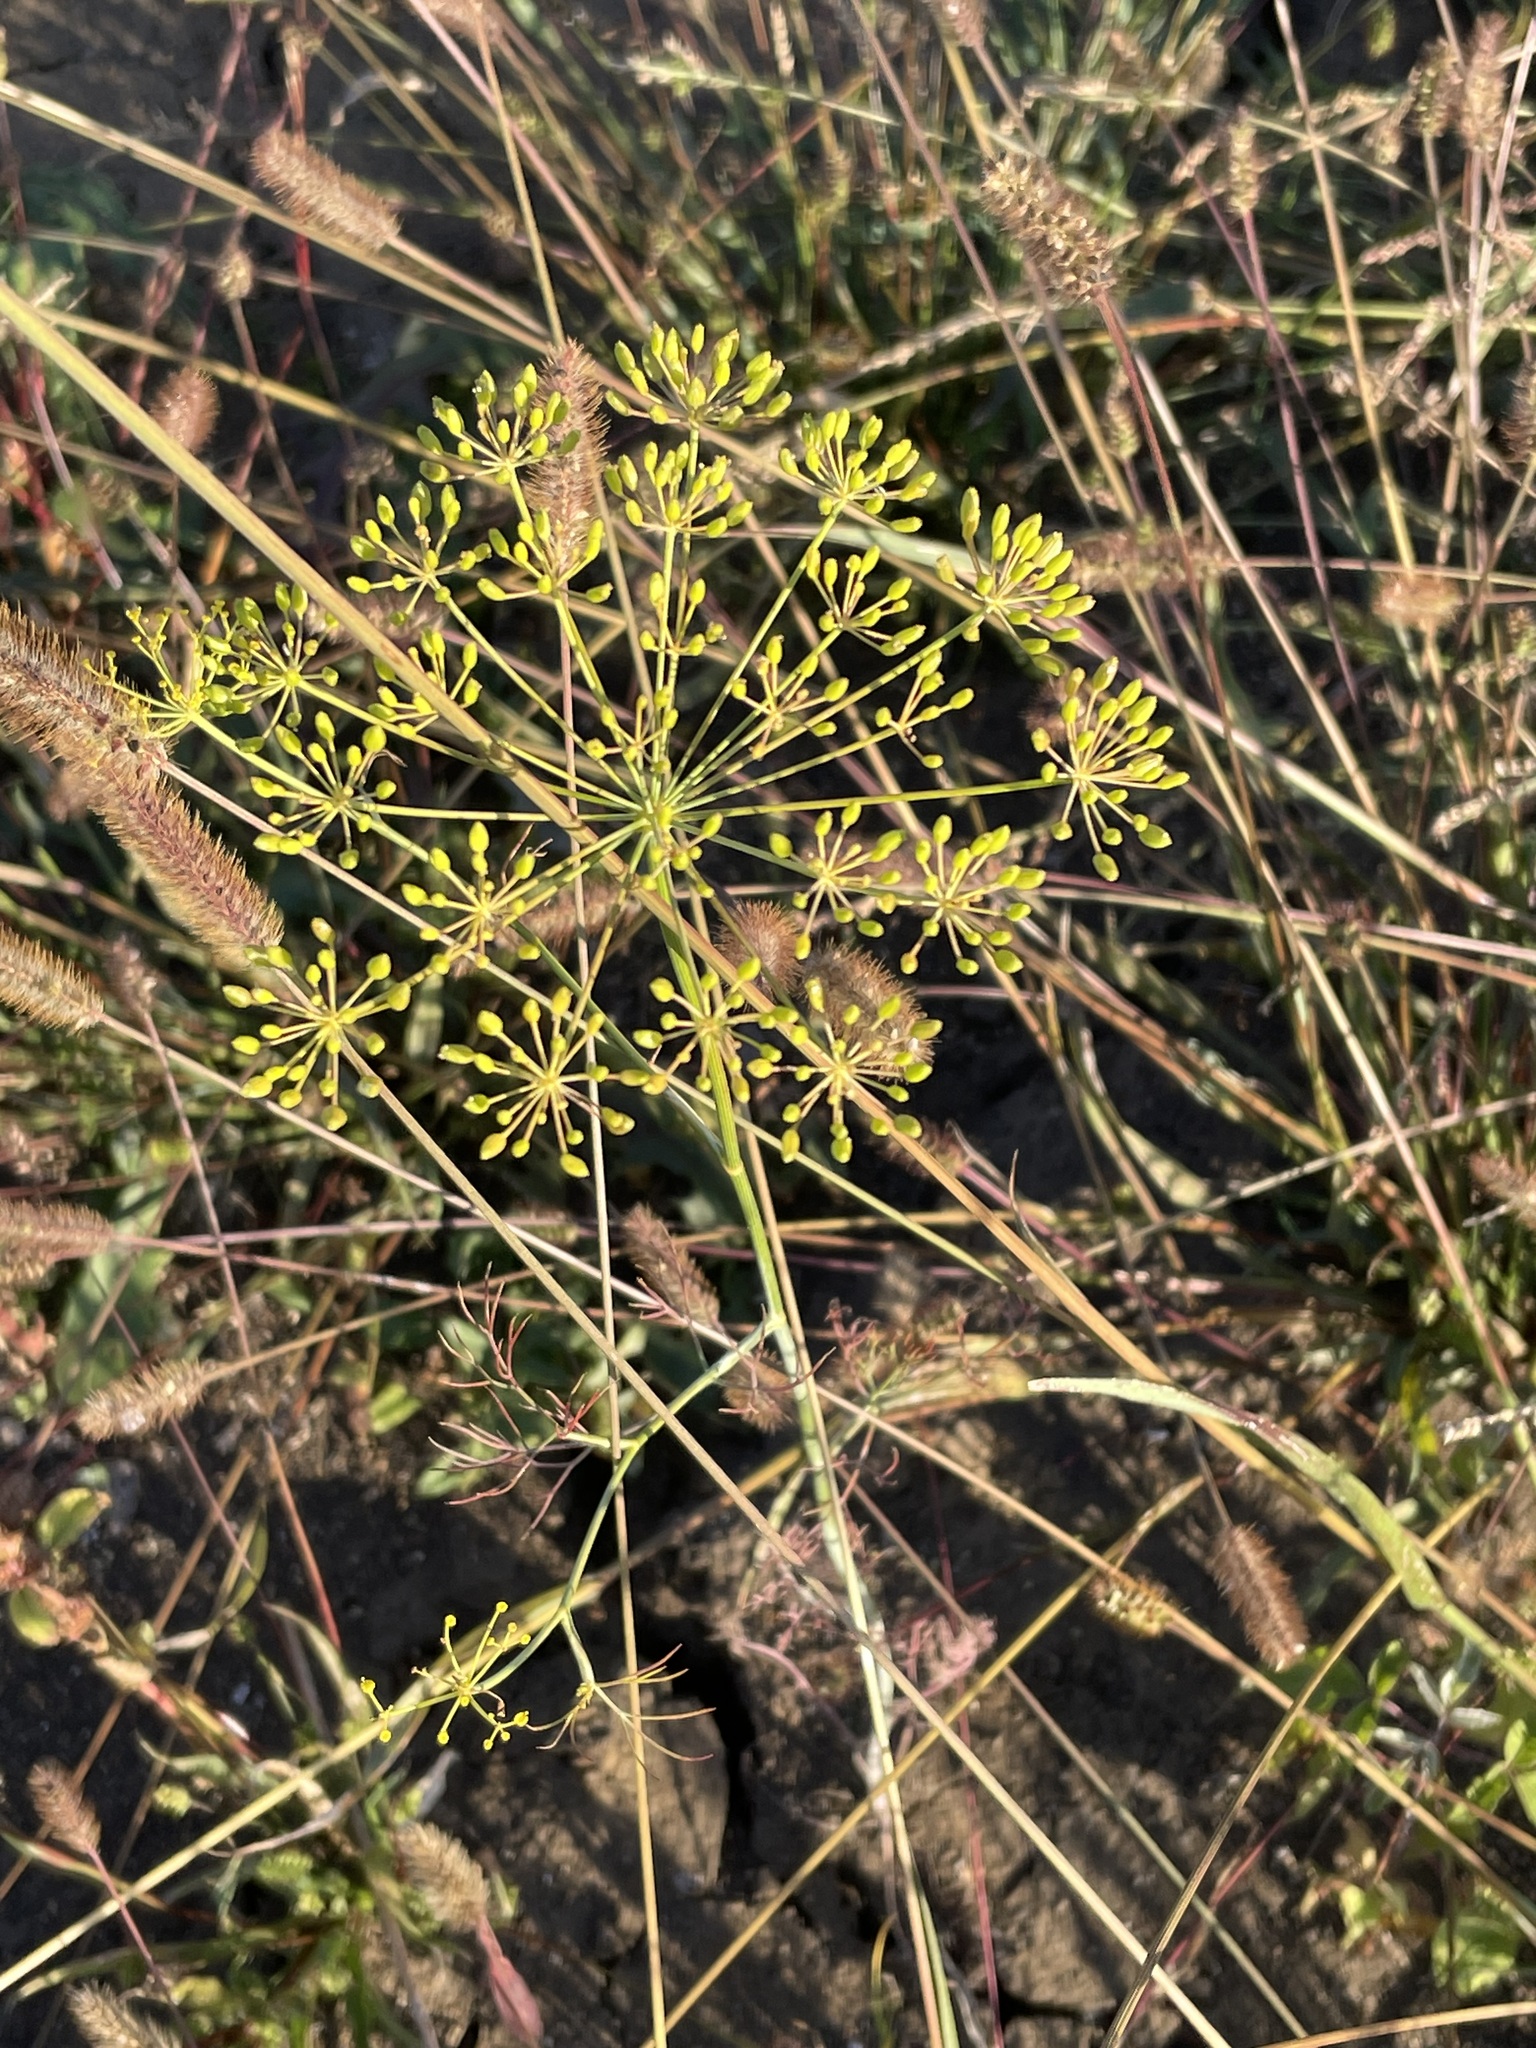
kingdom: Plantae
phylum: Tracheophyta
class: Magnoliopsida
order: Apiales
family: Apiaceae
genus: Anethum
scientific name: Anethum graveolens
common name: Dill
